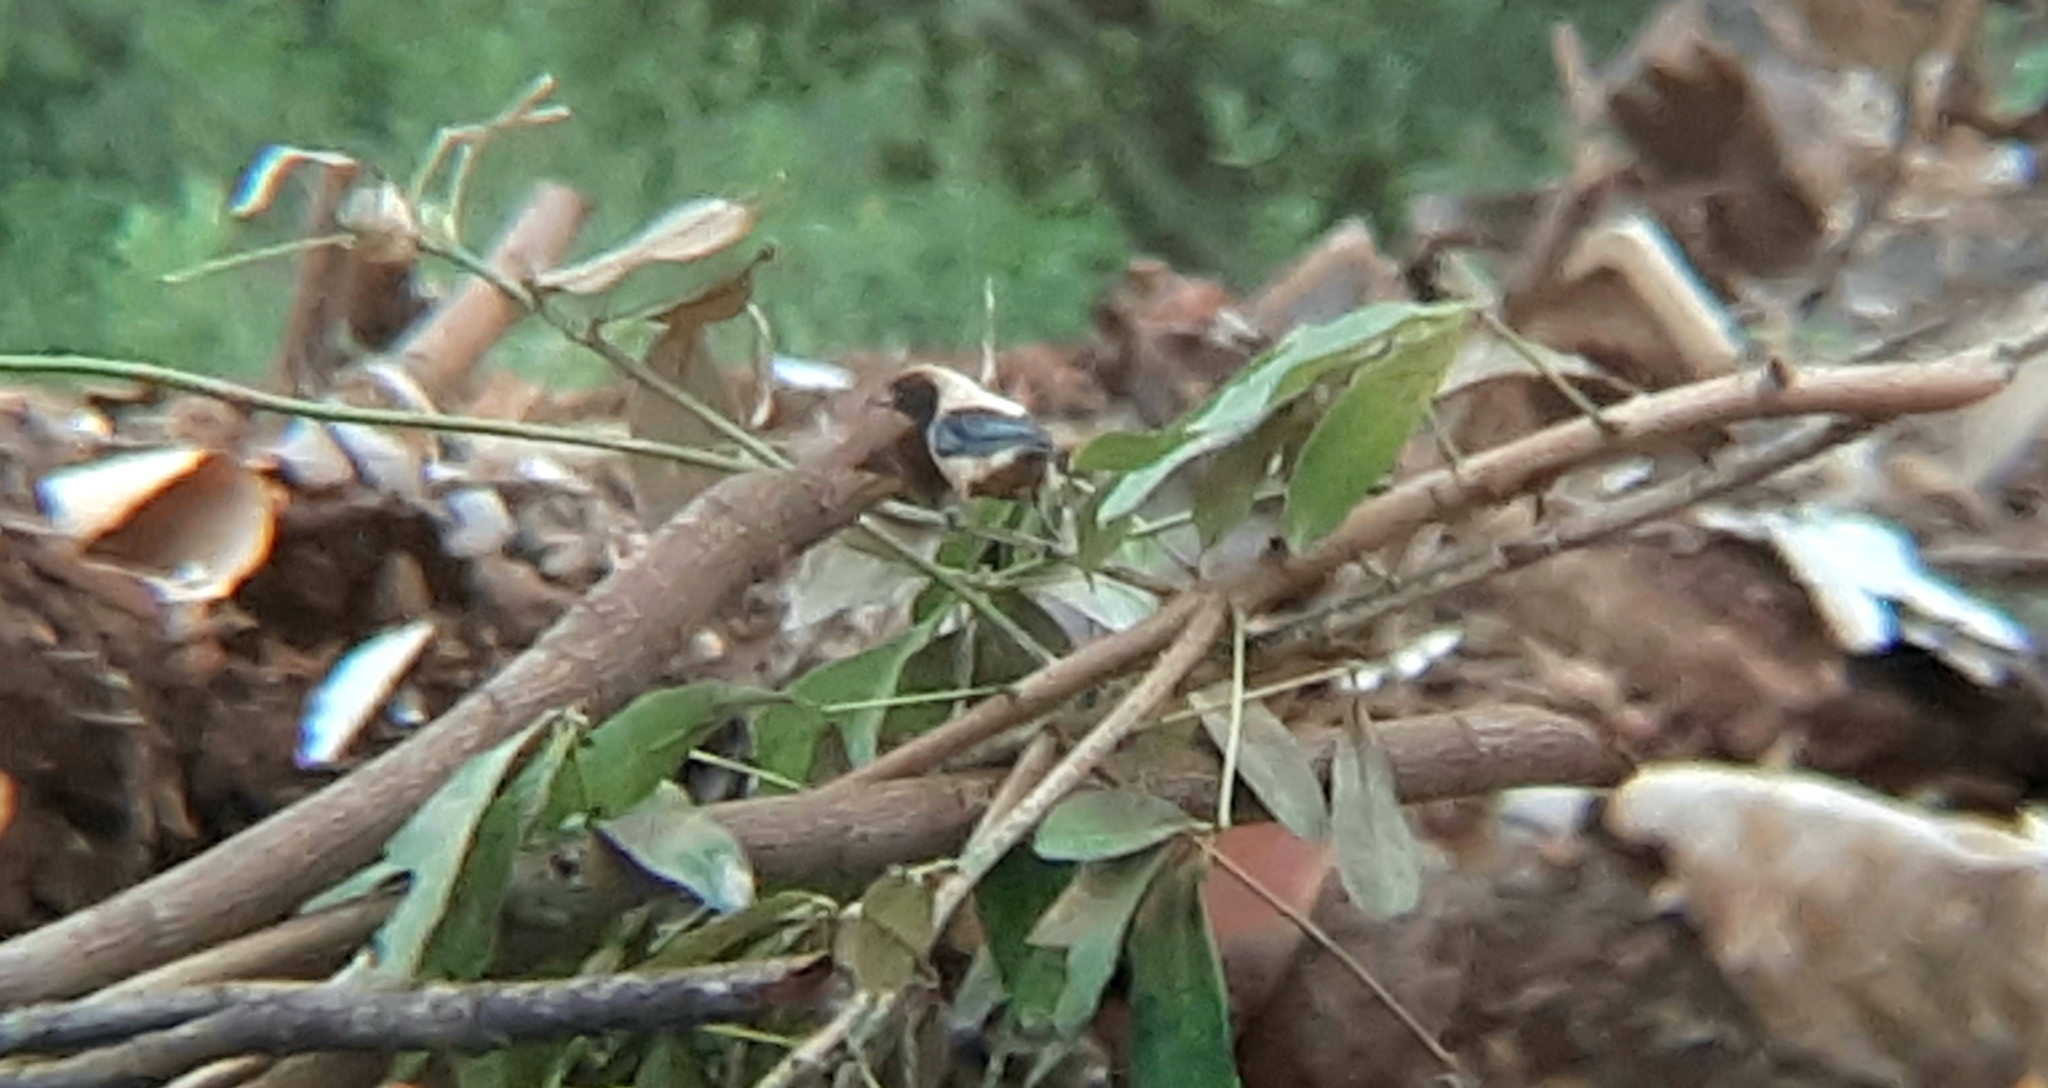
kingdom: Animalia
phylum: Chordata
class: Aves
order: Passeriformes
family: Thraupidae
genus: Stilpnia
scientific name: Stilpnia cayana
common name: Burnished-buff tanager
